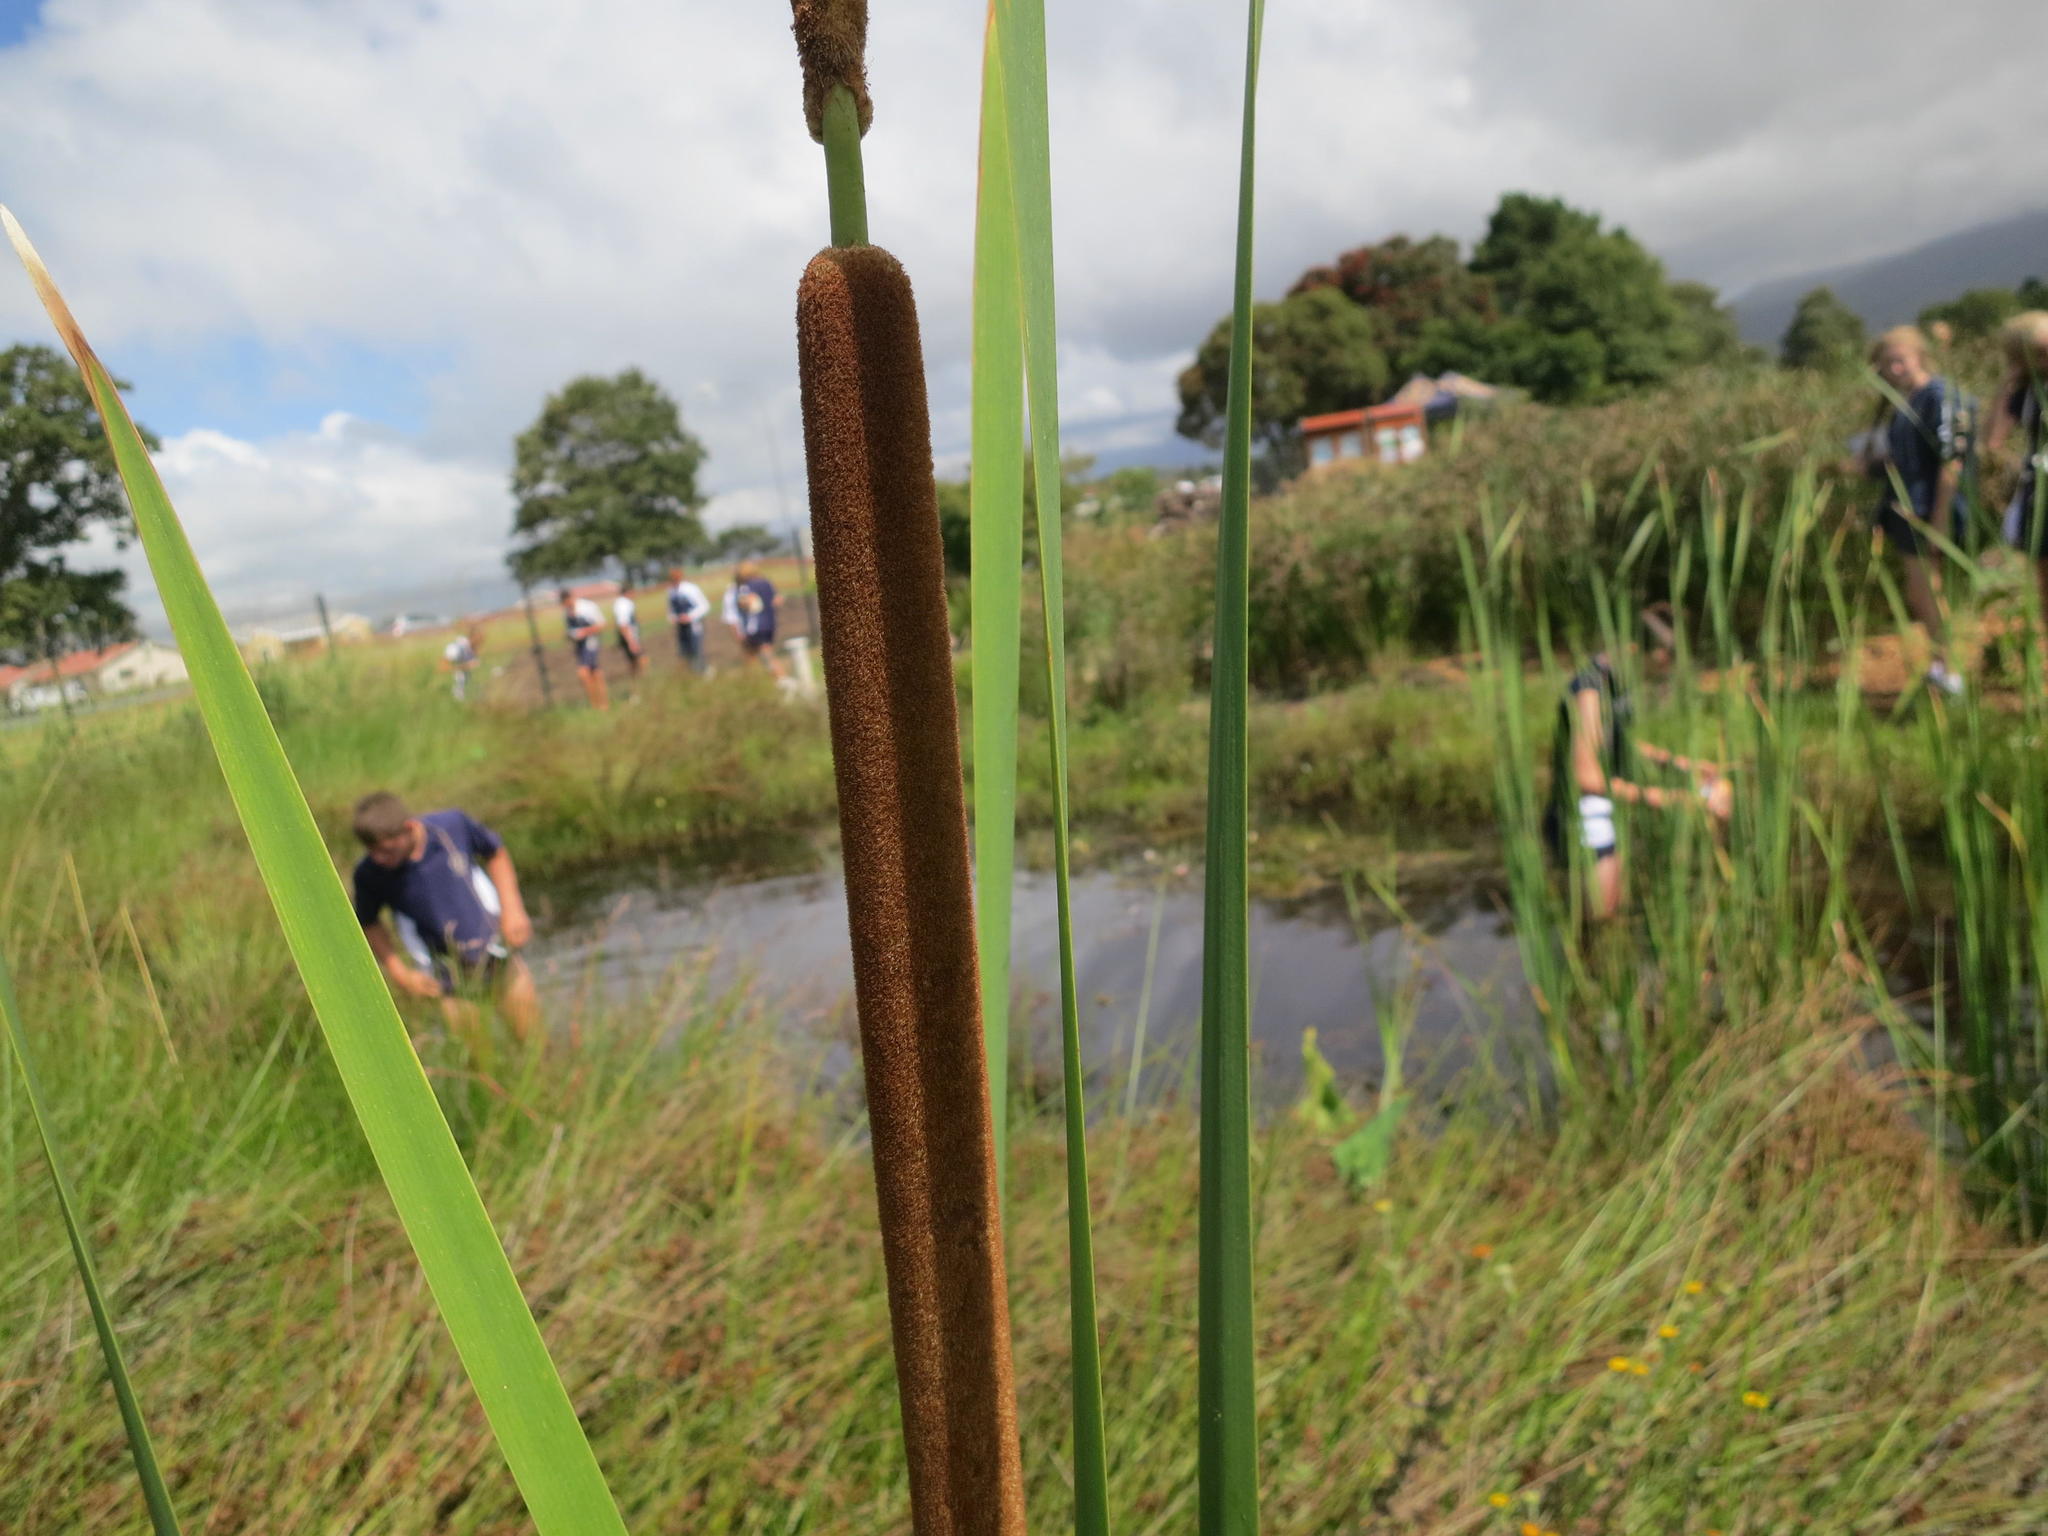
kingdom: Plantae
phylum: Tracheophyta
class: Liliopsida
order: Poales
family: Typhaceae
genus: Typha
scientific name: Typha capensis
